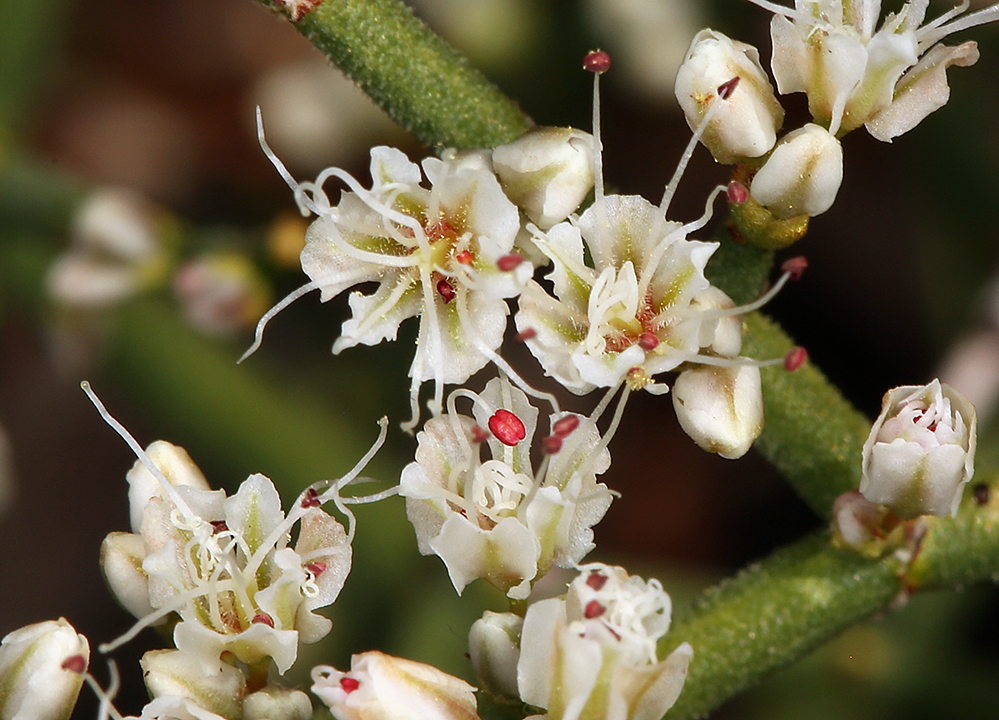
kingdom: Plantae
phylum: Tracheophyta
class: Magnoliopsida
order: Caryophyllales
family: Polygonaceae
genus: Eriogonum
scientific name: Eriogonum heermannii
